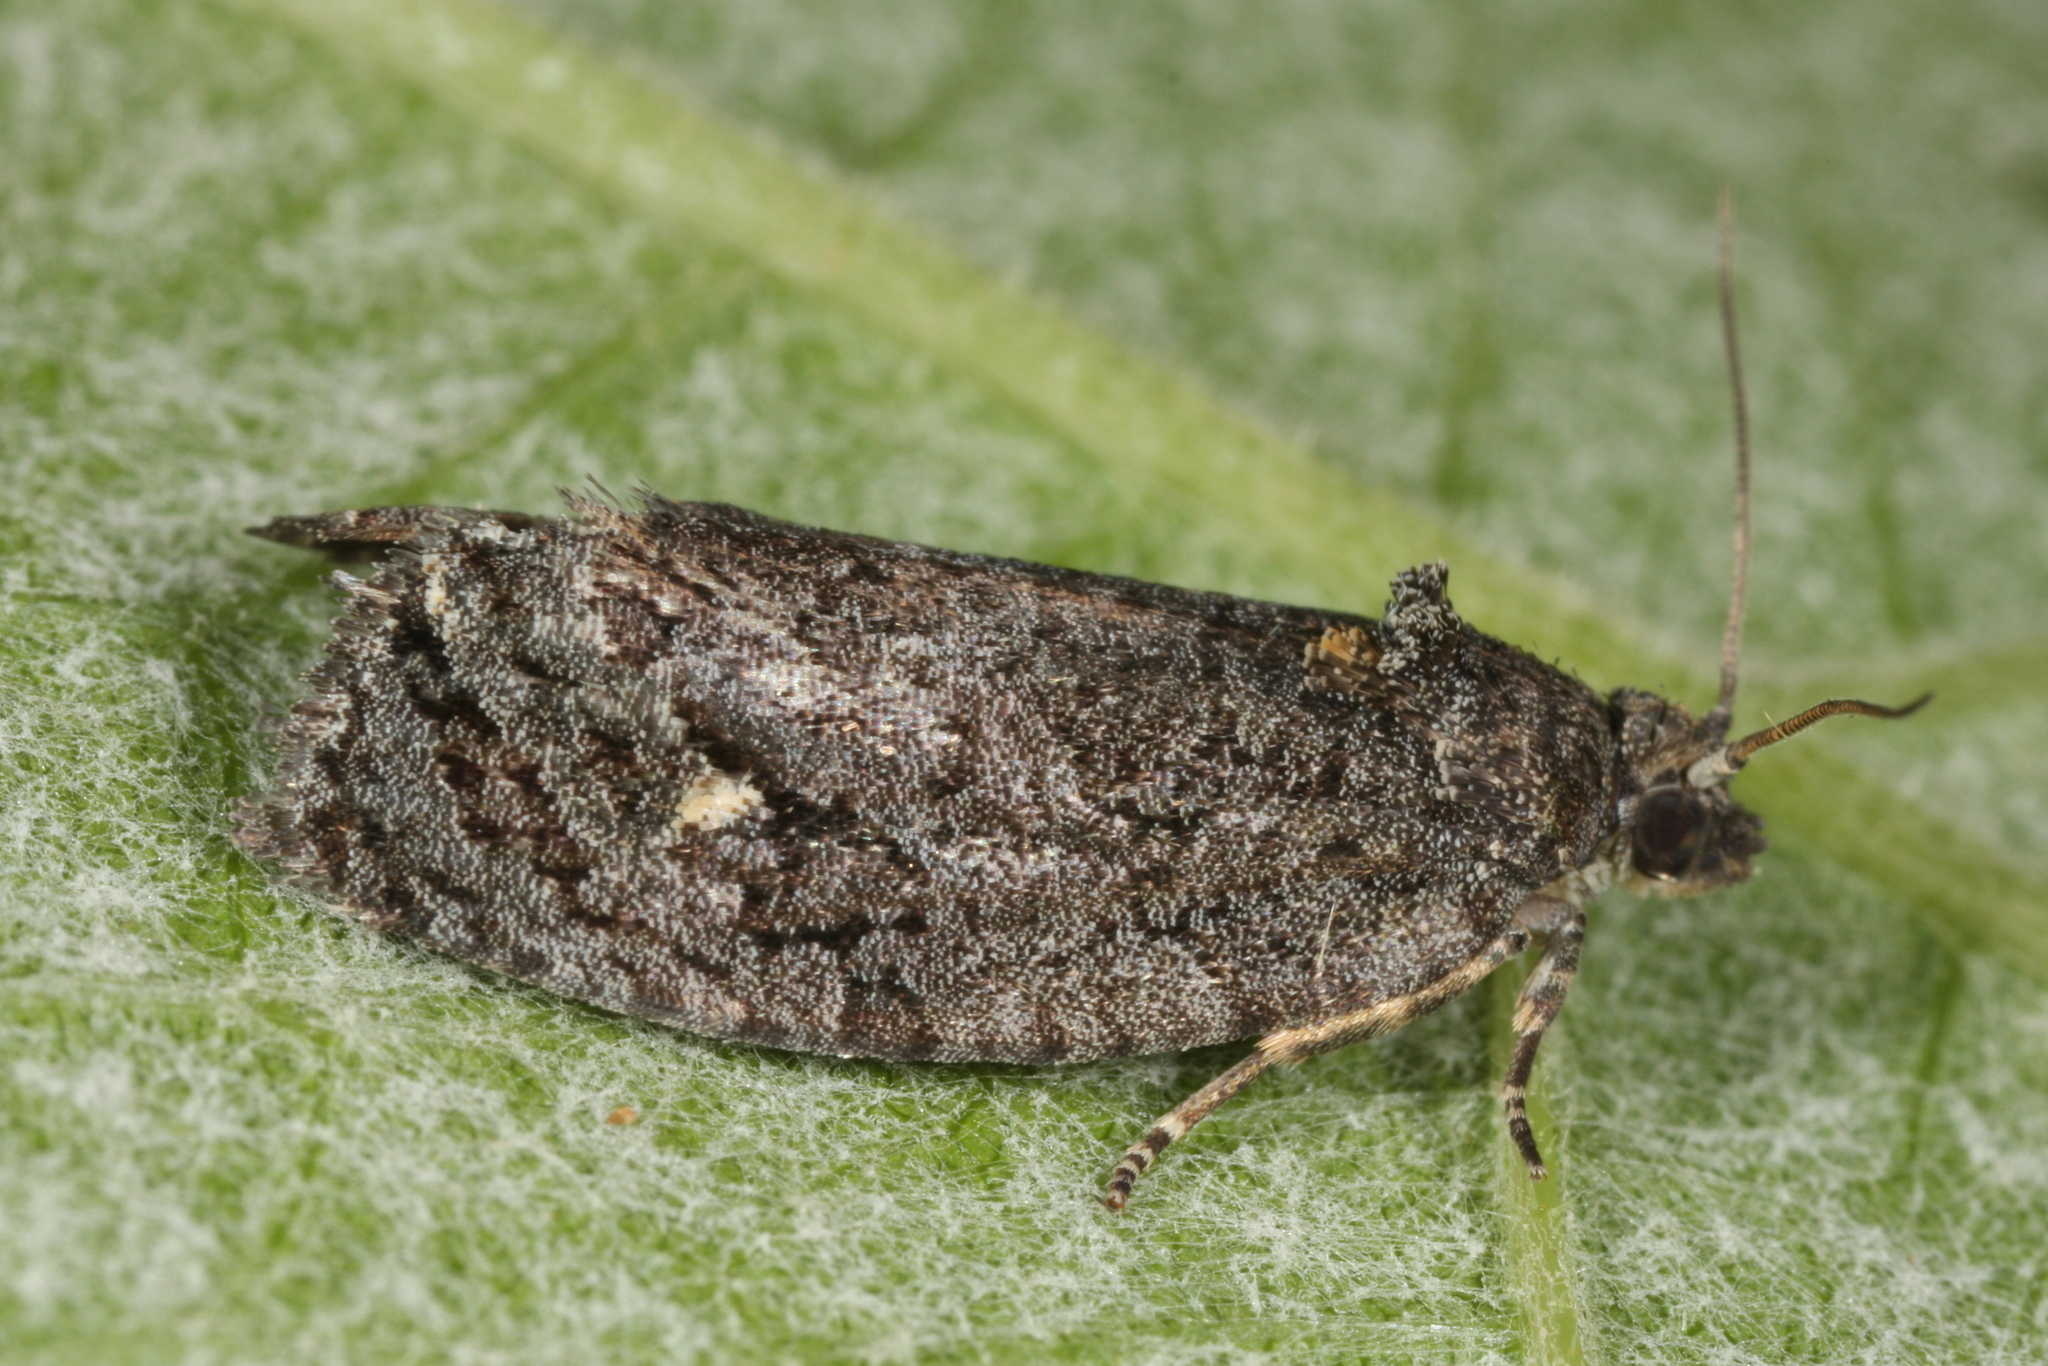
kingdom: Animalia
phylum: Arthropoda
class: Insecta
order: Lepidoptera
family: Tortricidae
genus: Apotomis
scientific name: Apotomis inundana
